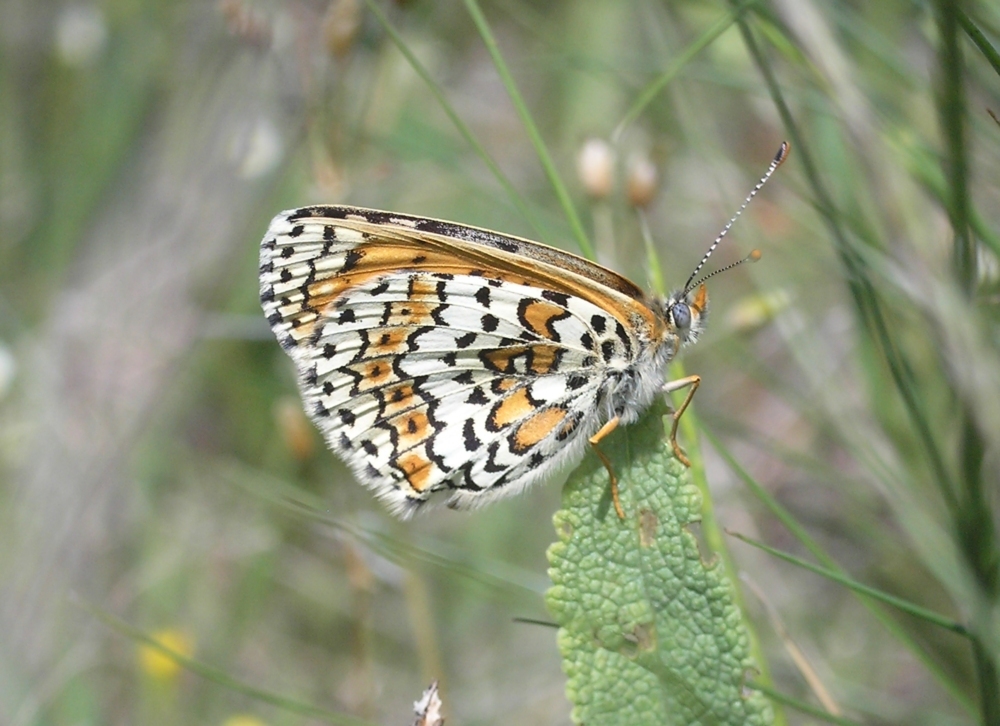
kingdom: Animalia
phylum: Arthropoda
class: Insecta
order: Lepidoptera
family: Nymphalidae
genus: Melitaea
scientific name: Melitaea cinxia
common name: Glanville fritillary
